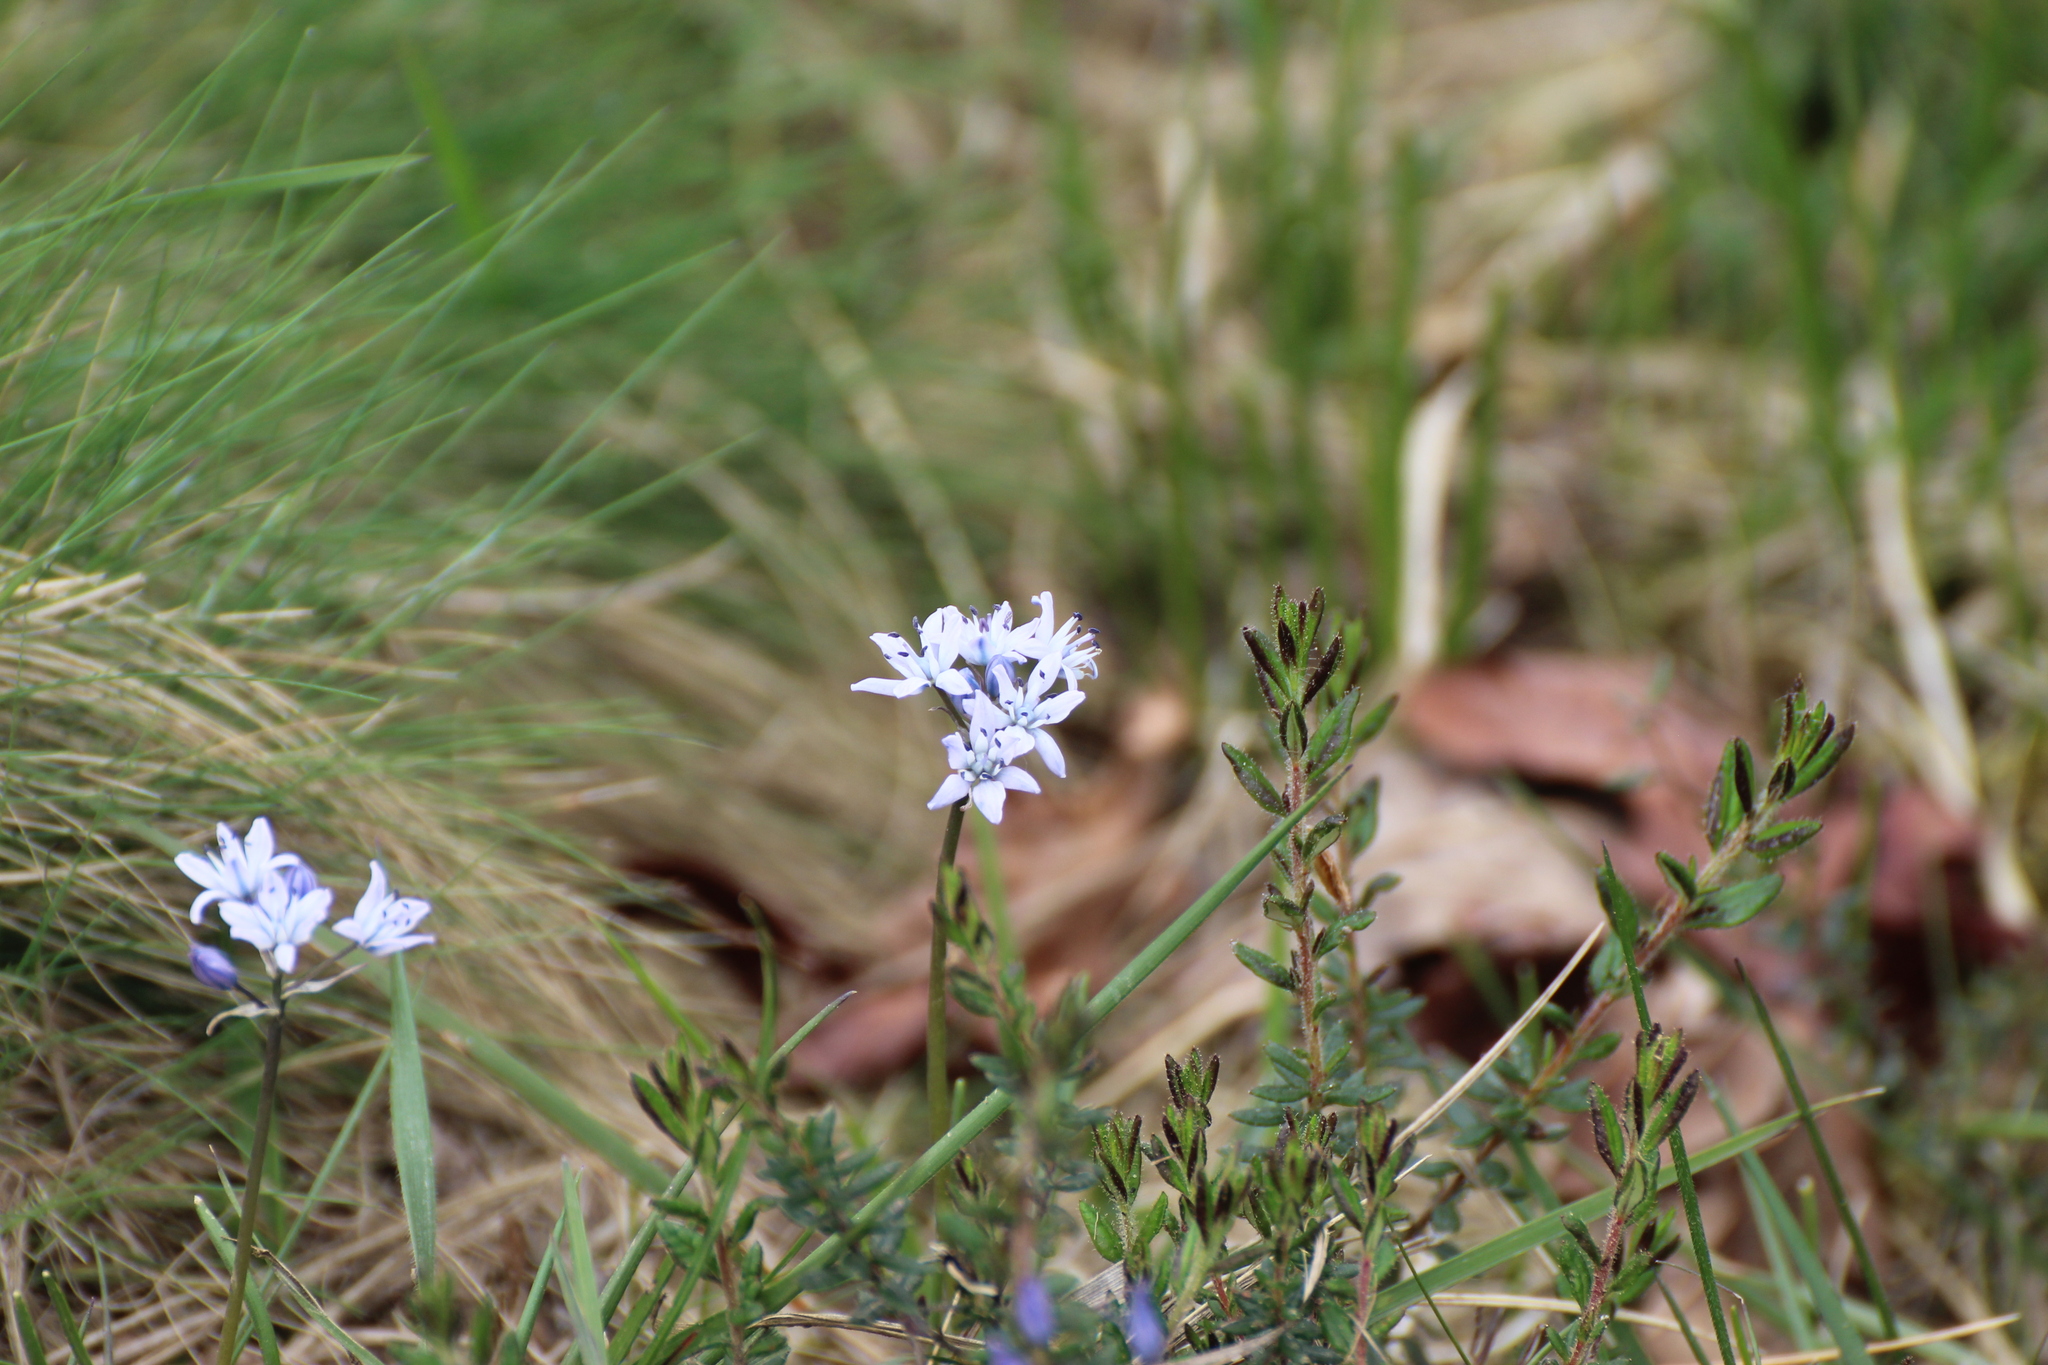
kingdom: Plantae
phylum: Tracheophyta
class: Liliopsida
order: Asparagales
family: Asparagaceae
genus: Scilla
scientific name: Scilla verna
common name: Spring squill
